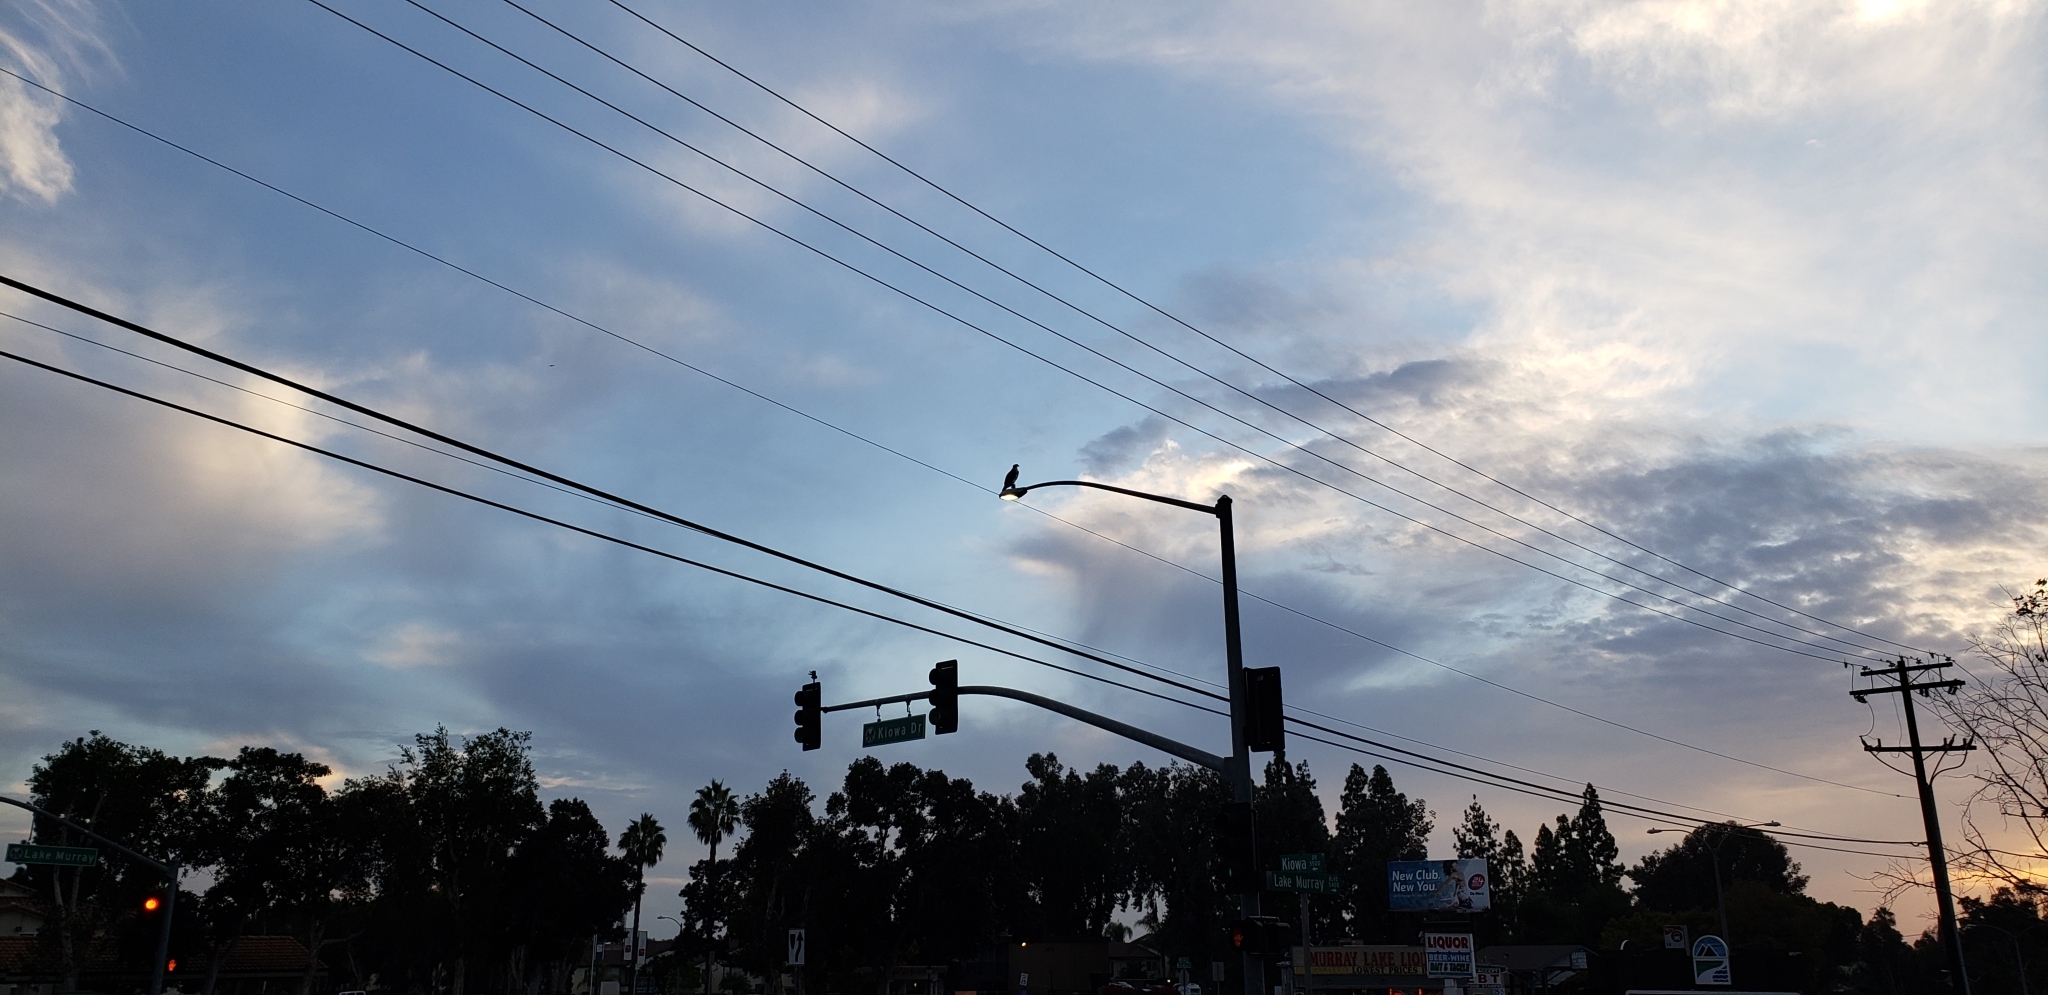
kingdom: Animalia
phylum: Chordata
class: Aves
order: Accipitriformes
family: Pandionidae
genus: Pandion
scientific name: Pandion haliaetus
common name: Osprey
